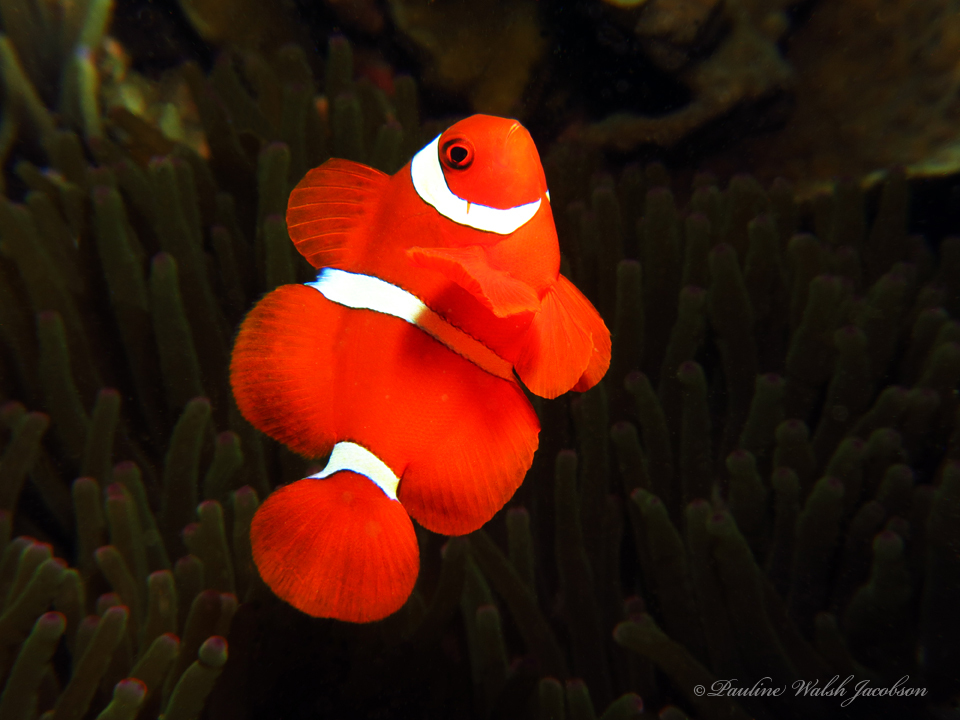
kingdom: Animalia
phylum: Chordata
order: Perciformes
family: Pomacentridae
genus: Premnas
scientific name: Premnas biaculeatus
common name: Spinecheek anemonefish
